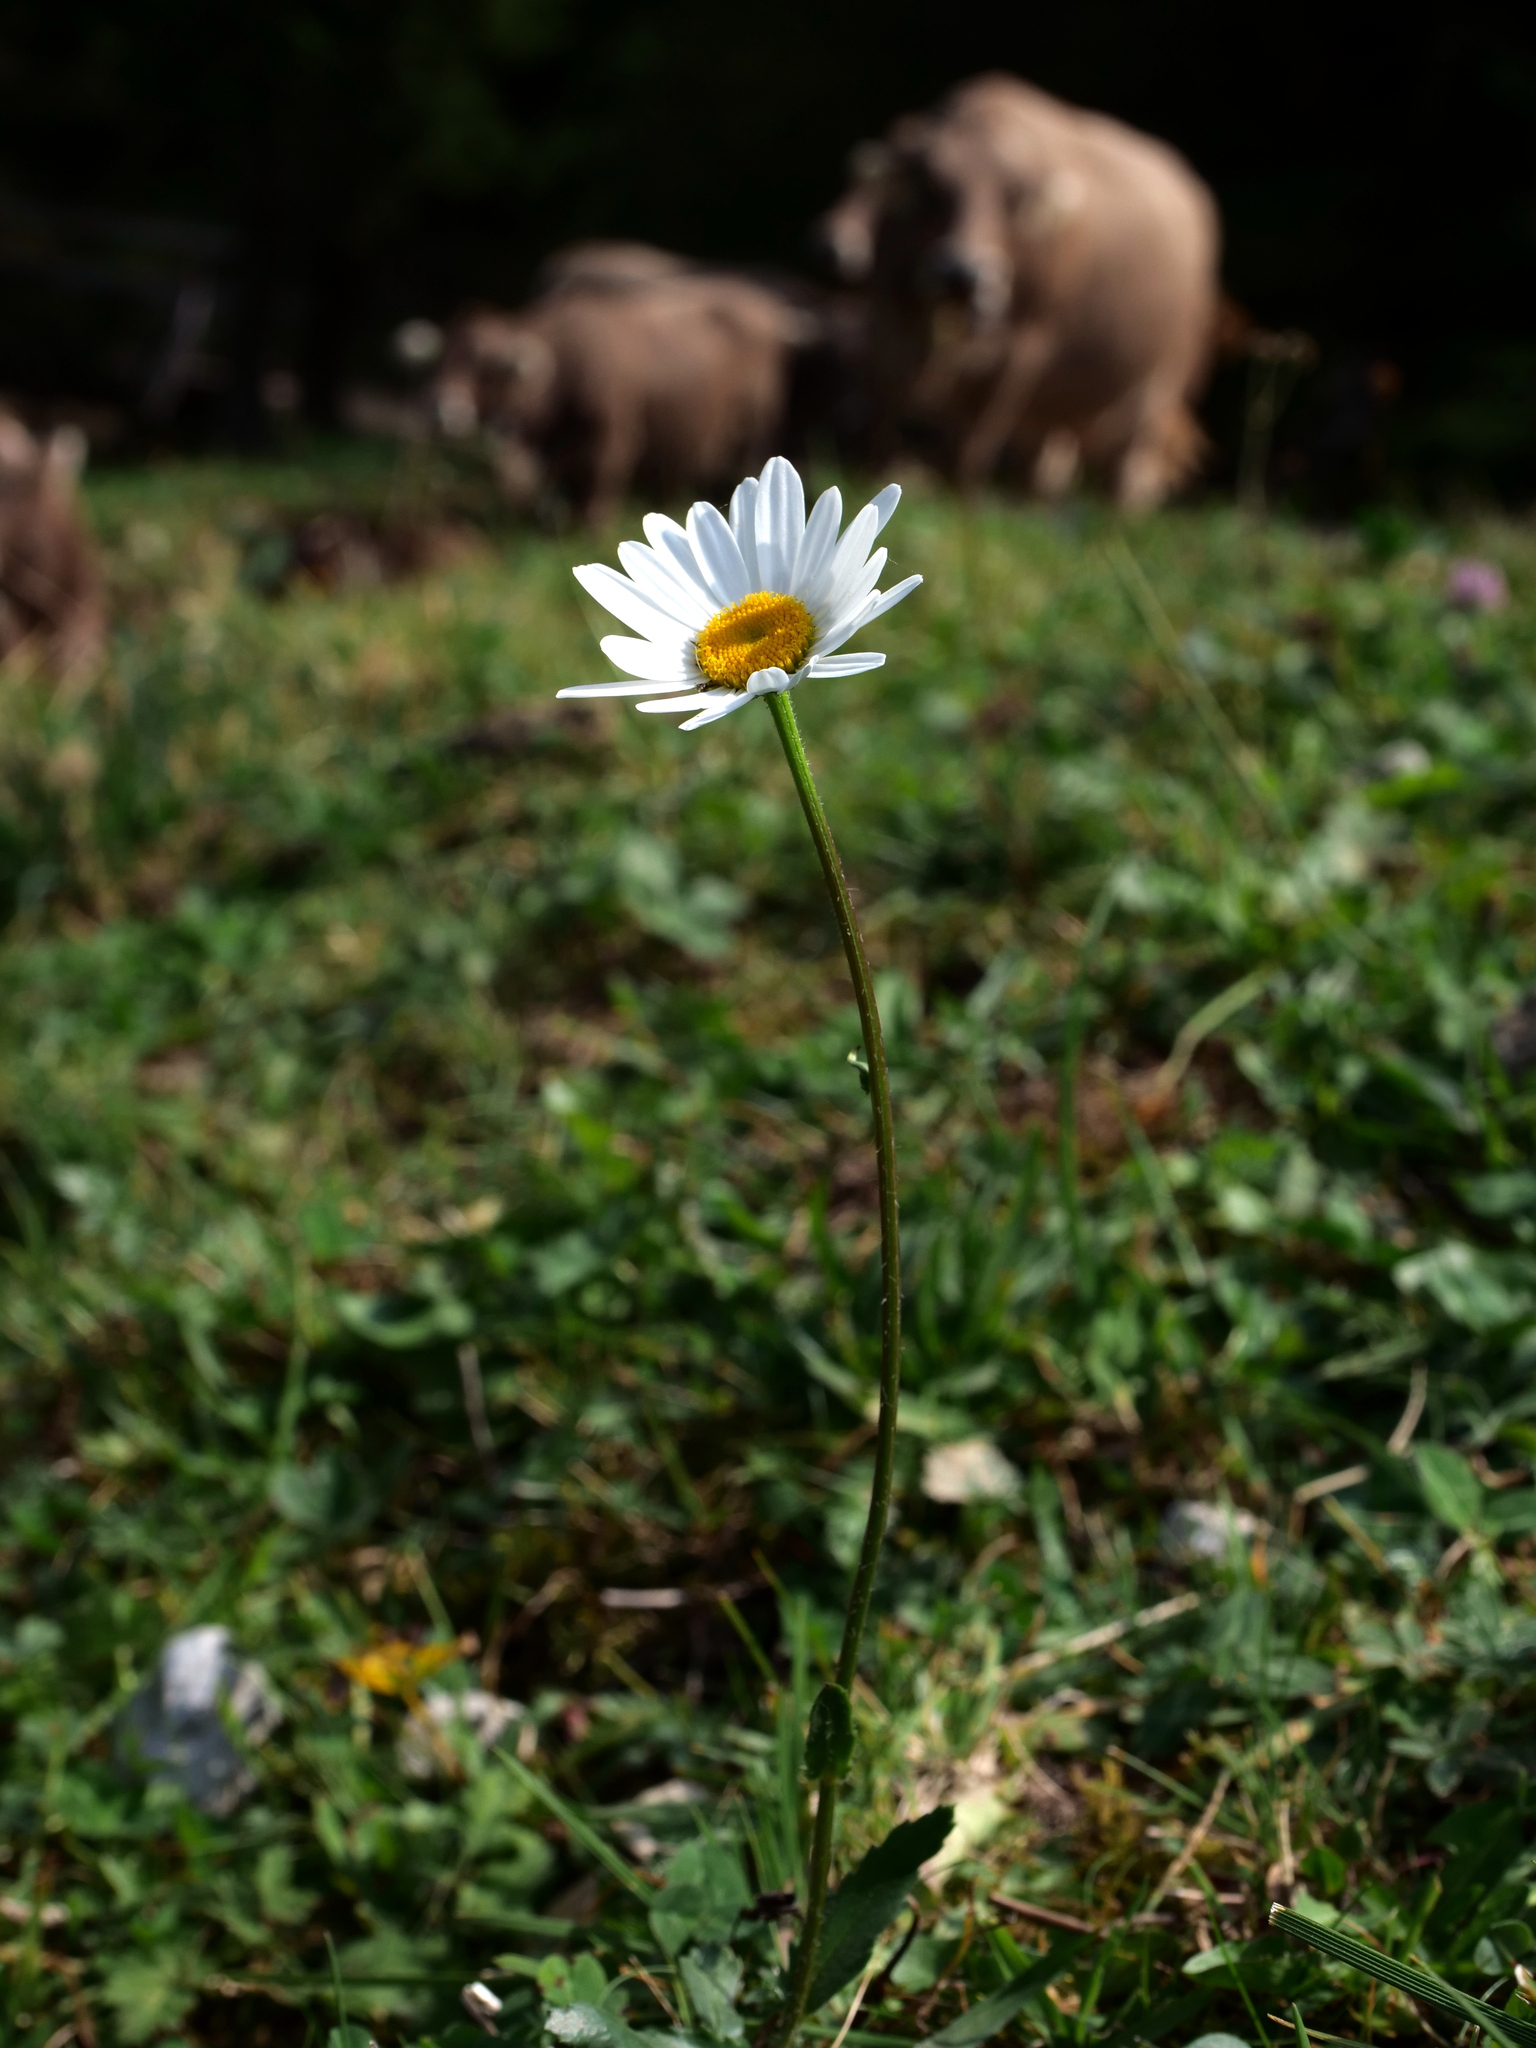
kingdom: Plantae
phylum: Tracheophyta
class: Magnoliopsida
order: Asterales
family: Asteraceae
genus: Leucanthemum
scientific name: Leucanthemum adustum
